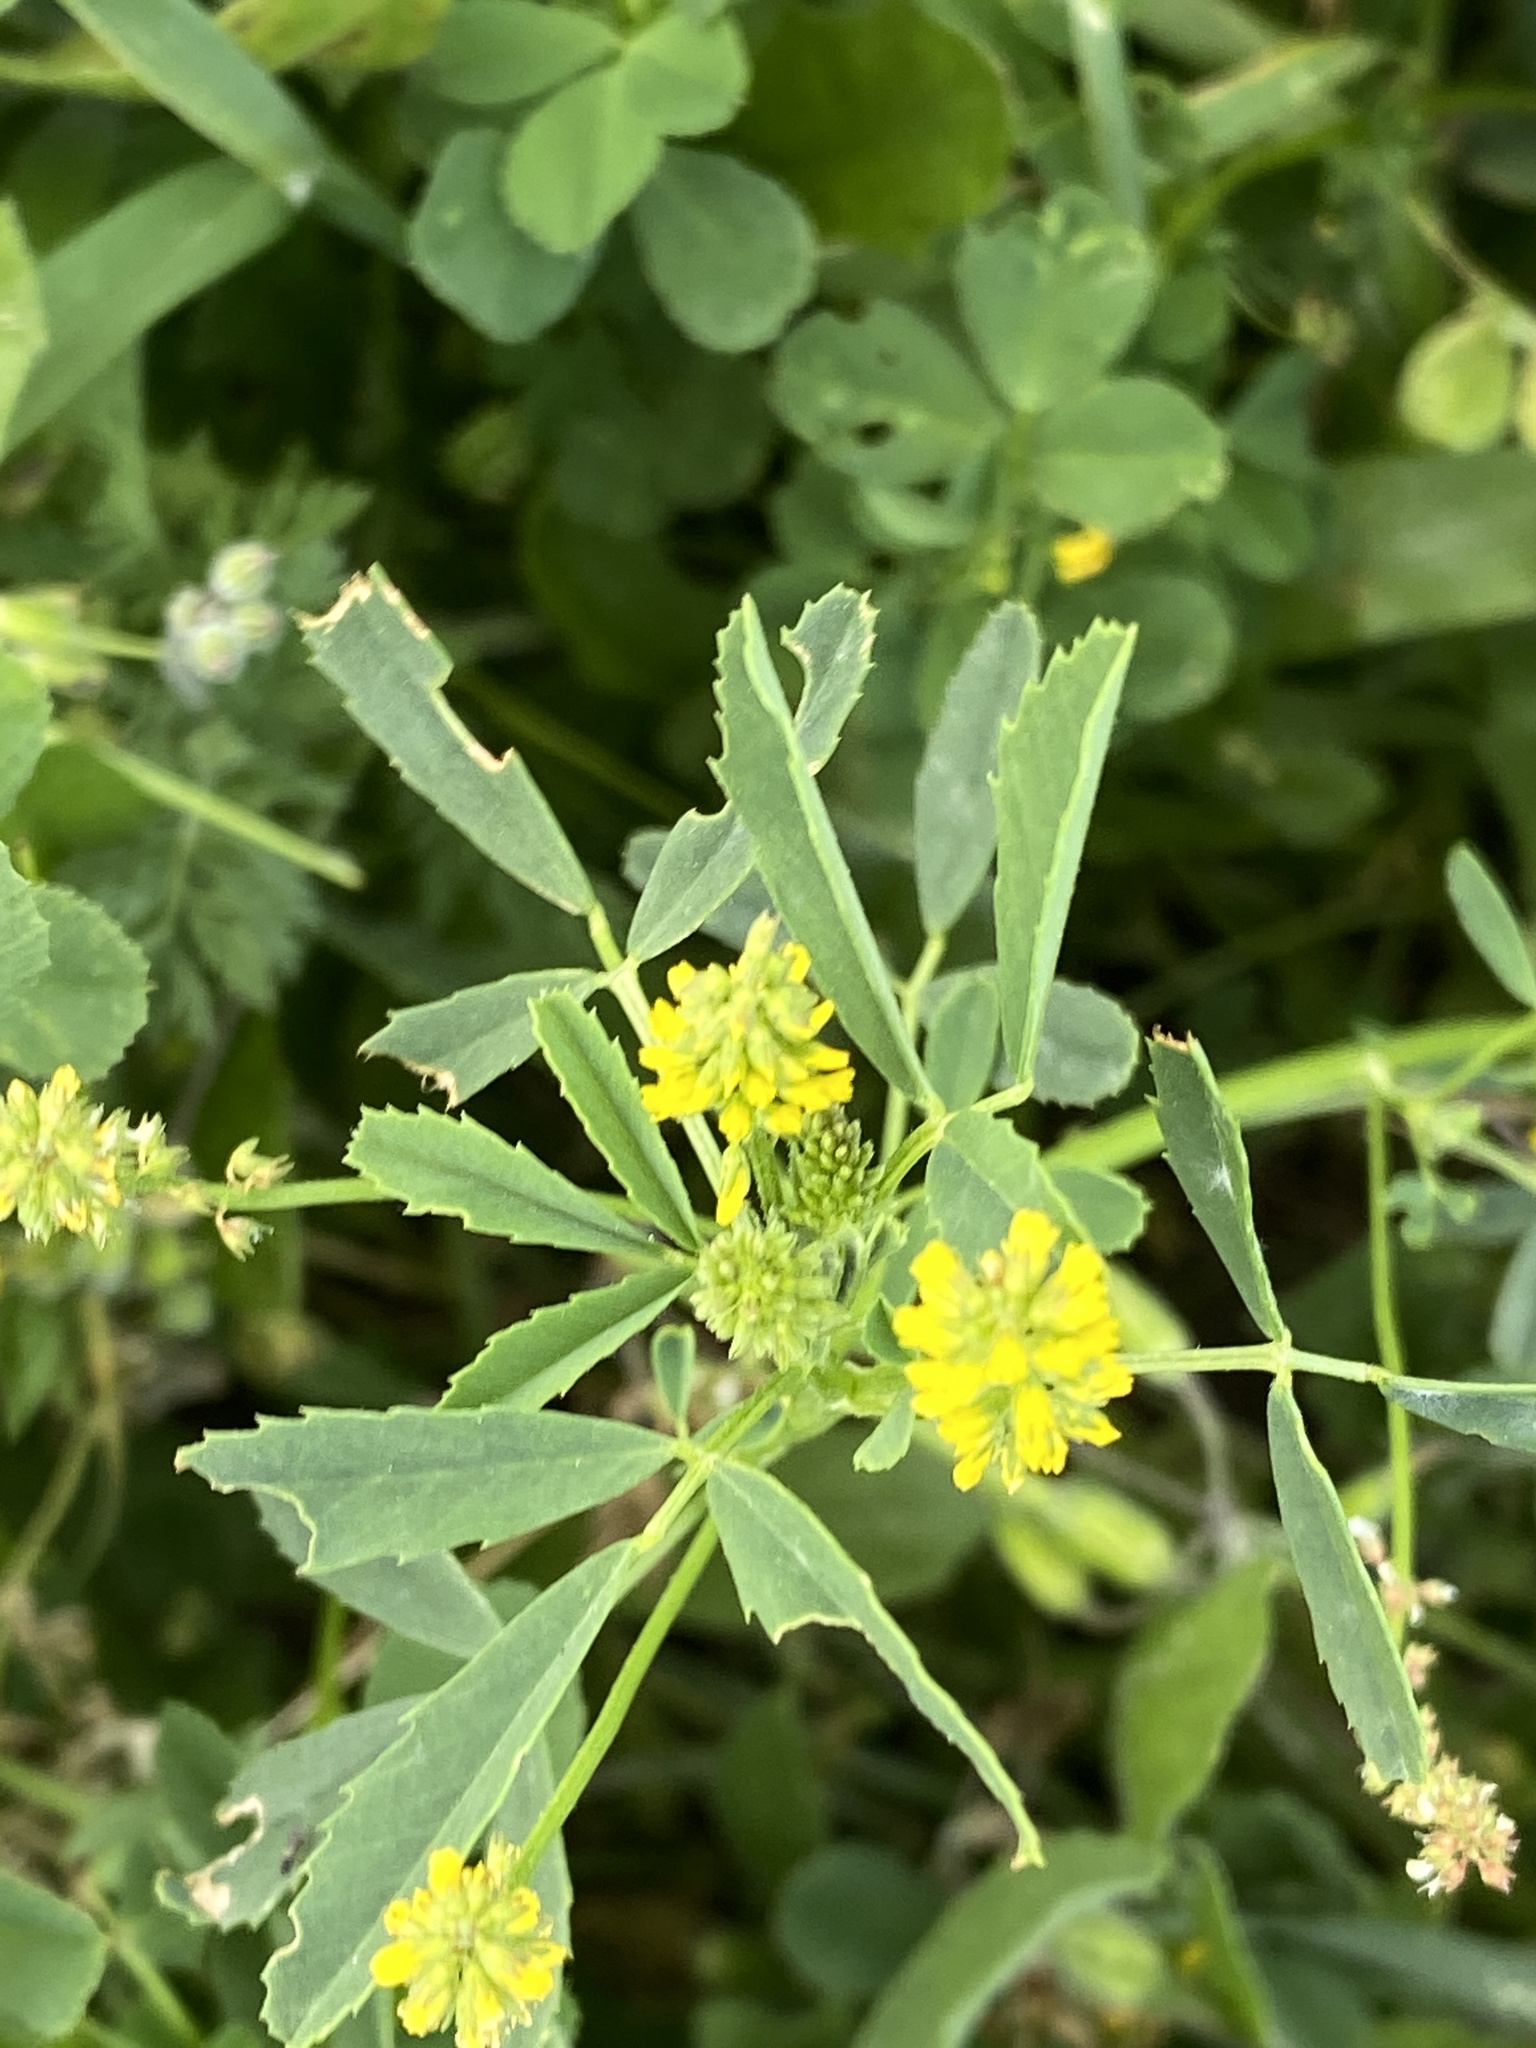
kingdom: Plantae
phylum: Tracheophyta
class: Magnoliopsida
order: Fabales
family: Fabaceae
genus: Melilotus
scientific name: Melilotus indicus
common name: Small melilot
